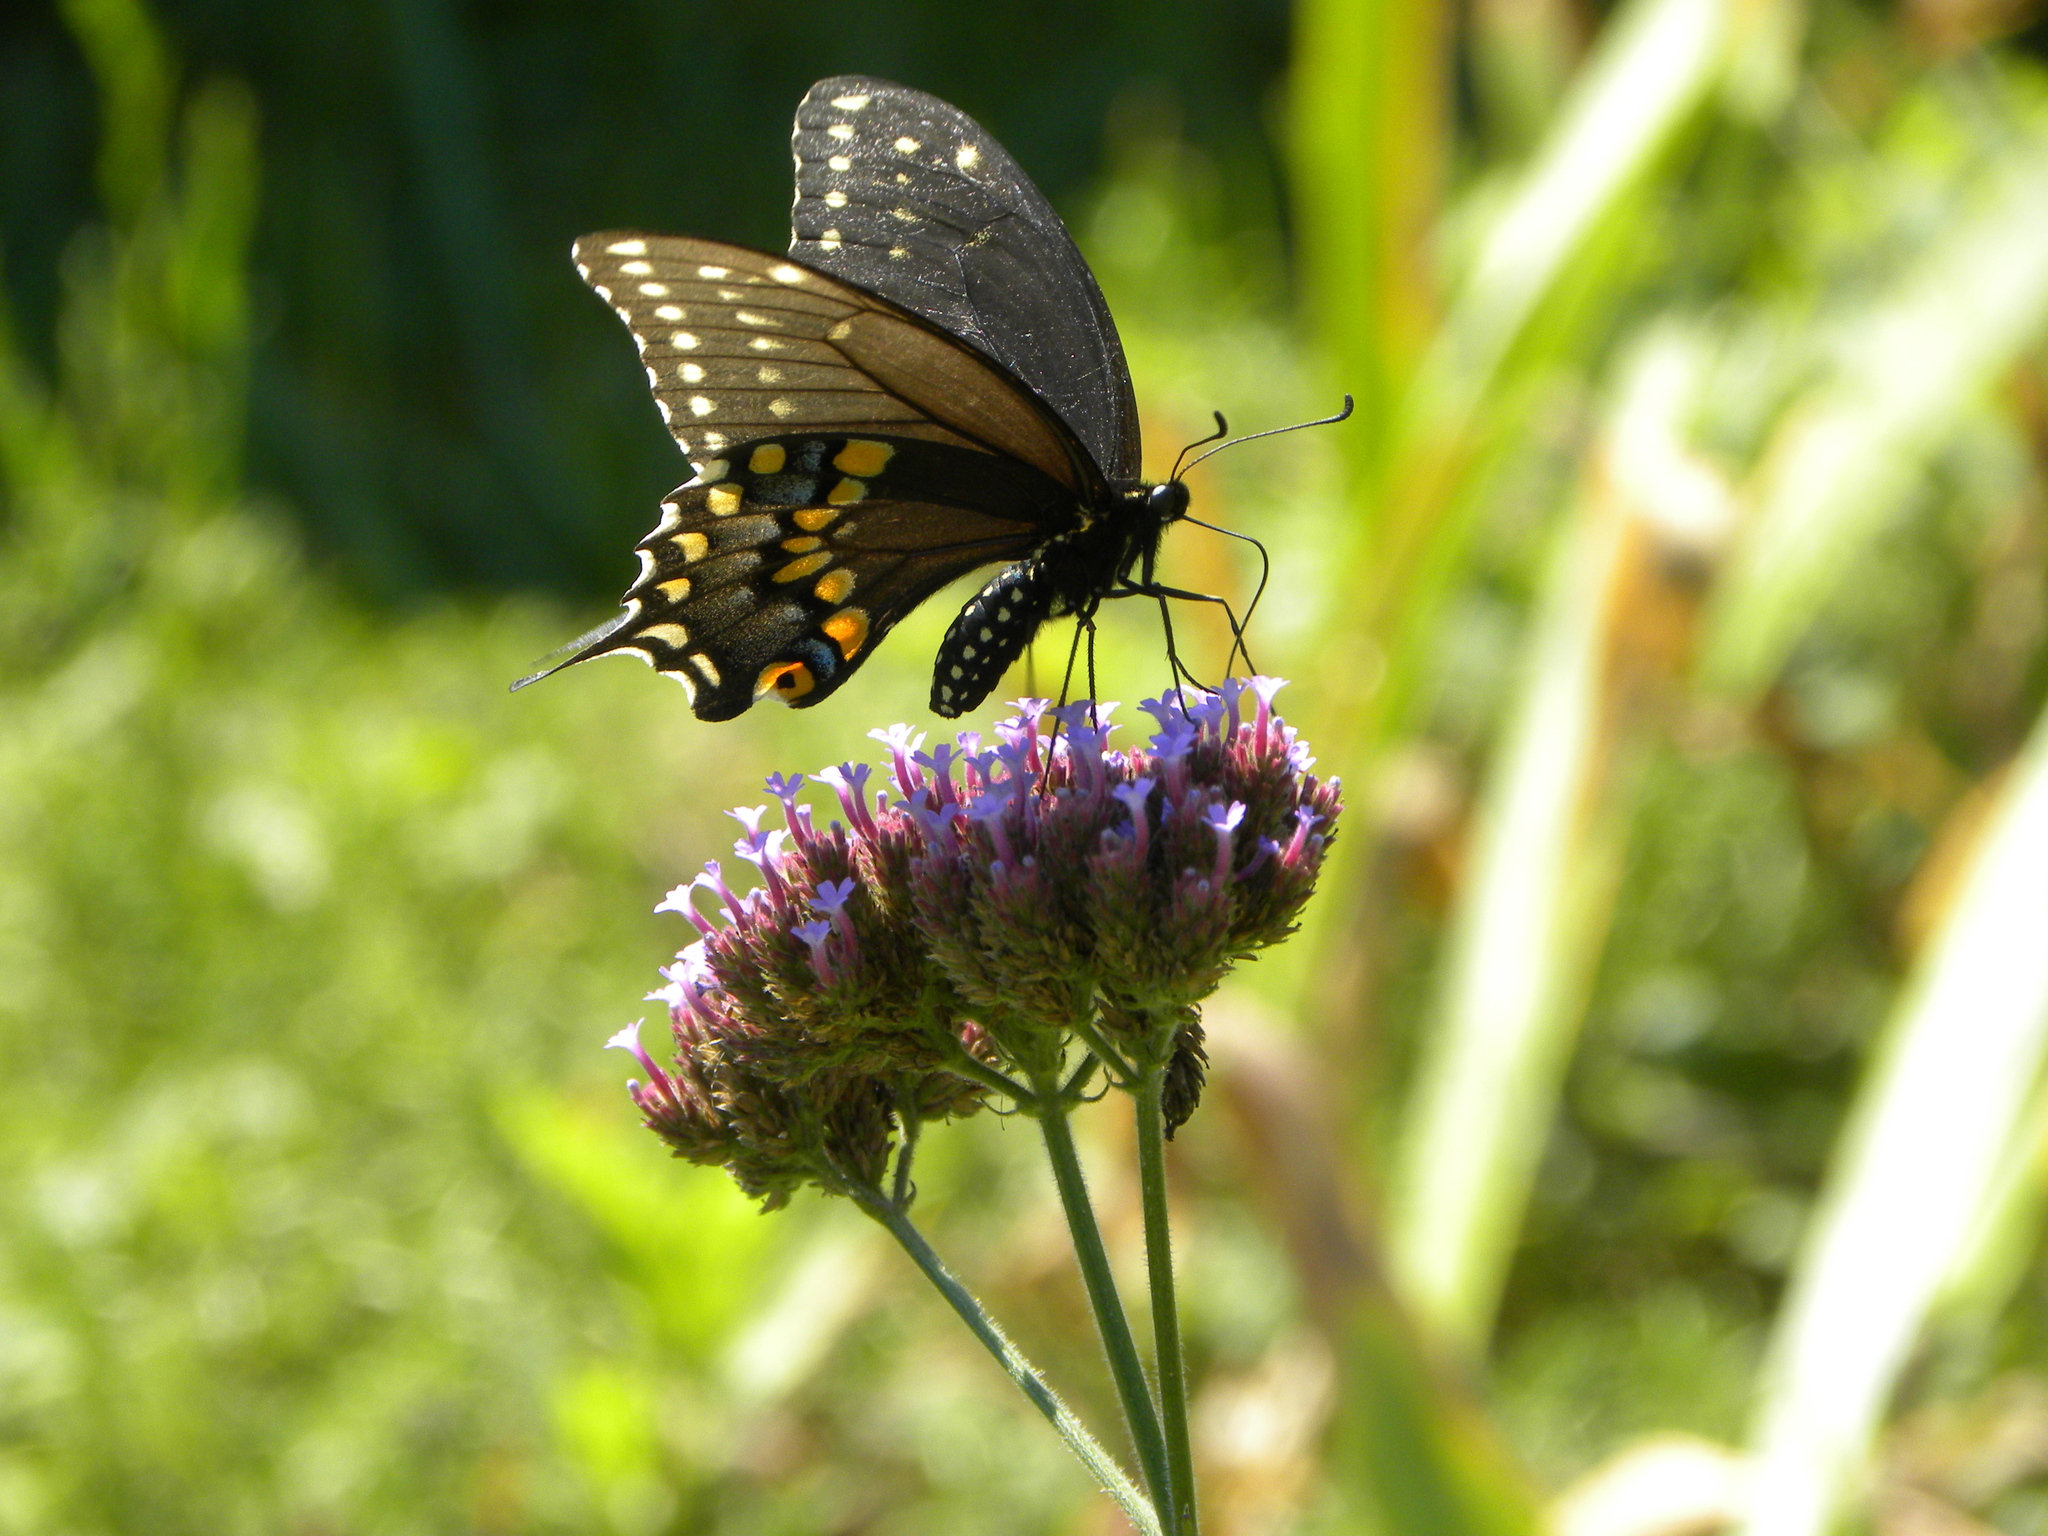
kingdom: Animalia
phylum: Arthropoda
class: Insecta
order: Lepidoptera
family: Papilionidae
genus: Papilio
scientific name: Papilio polyxenes
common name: Black swallowtail
